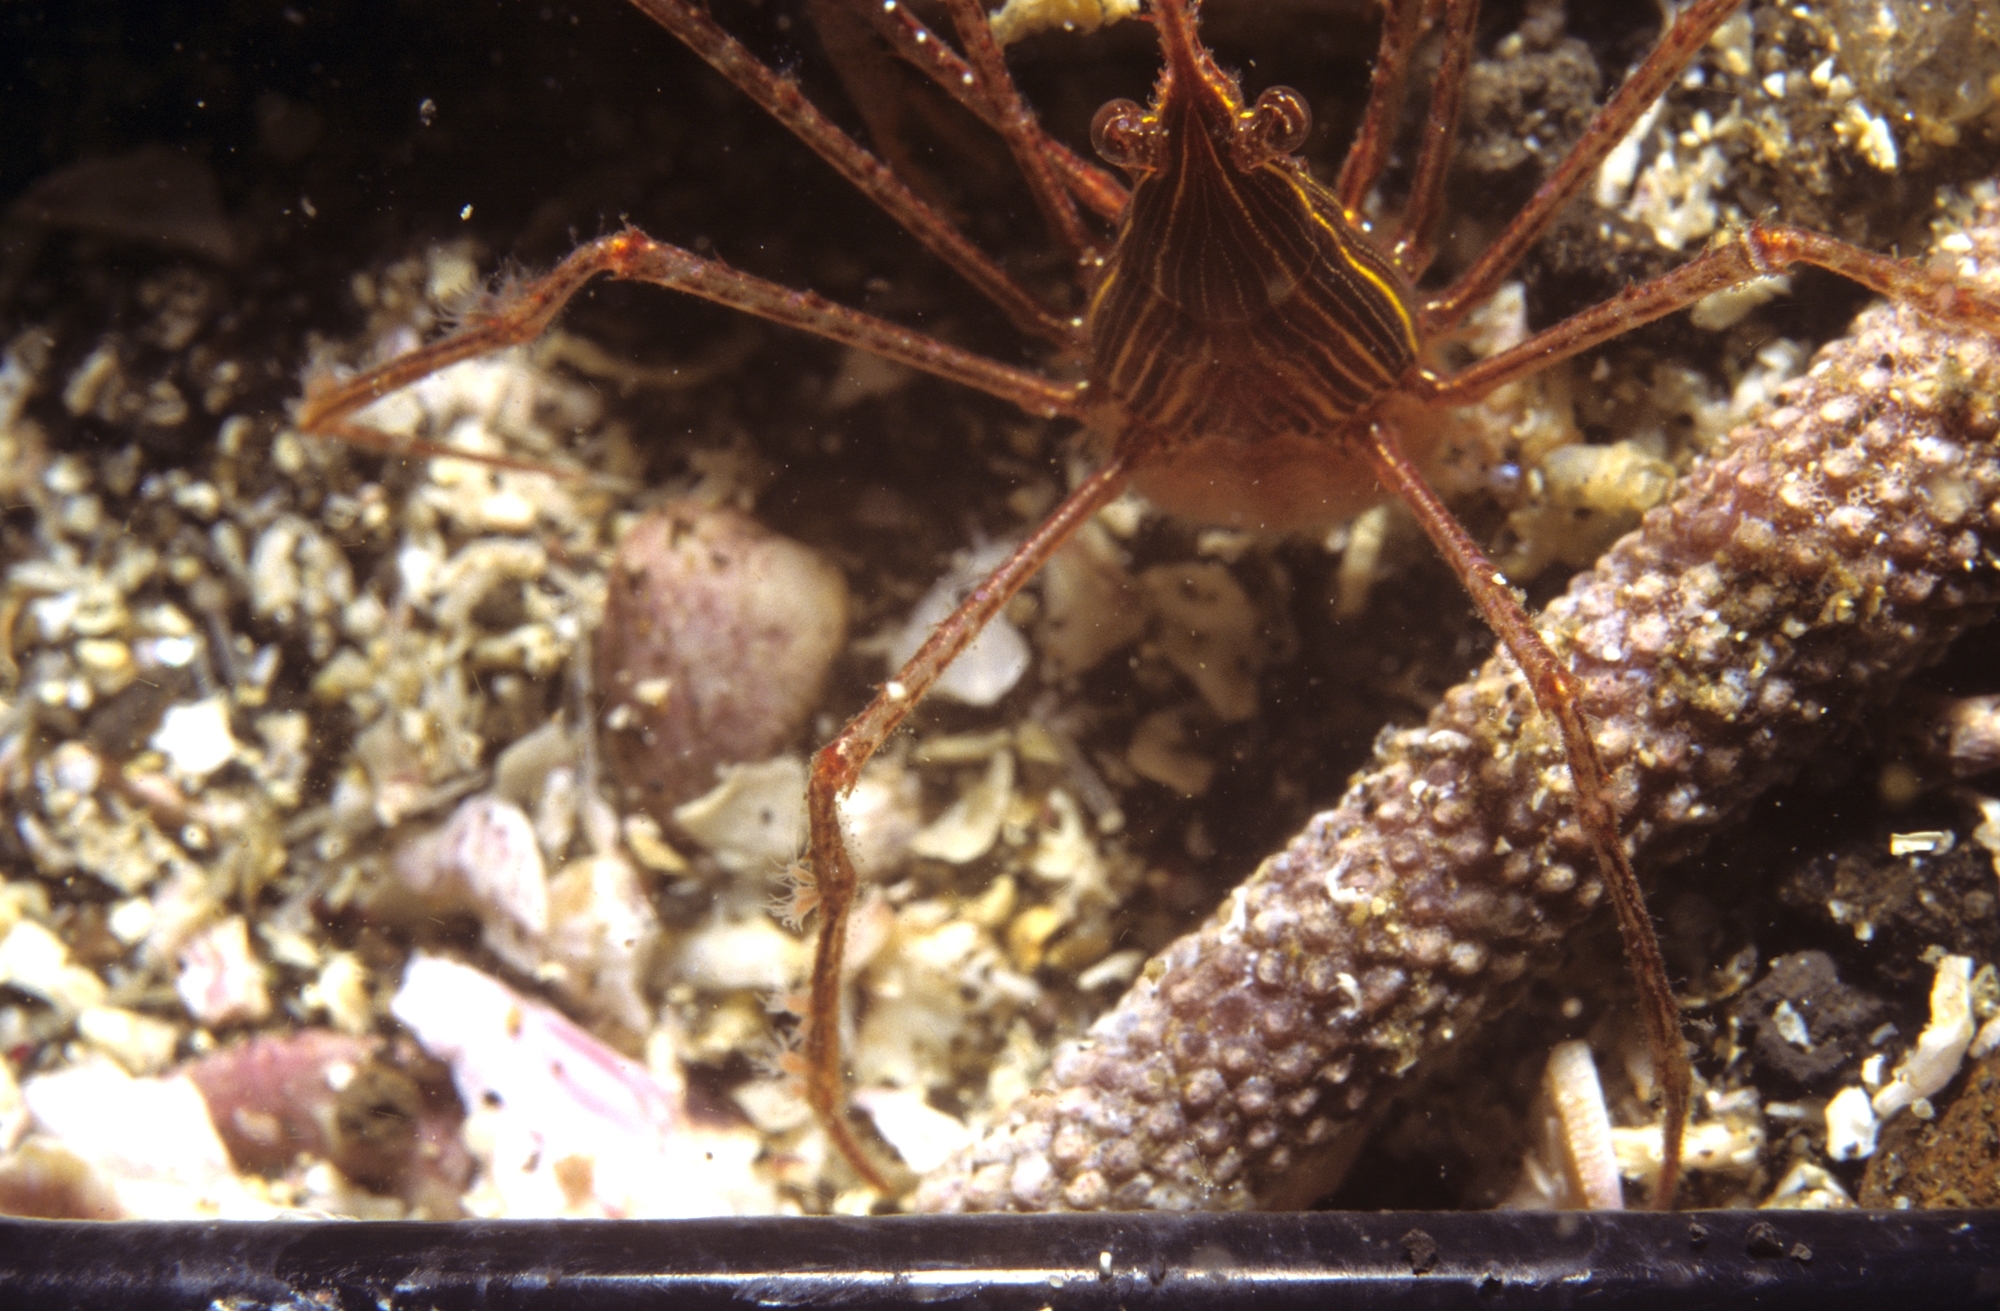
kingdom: Animalia
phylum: Arthropoda
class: Malacostraca
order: Decapoda
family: Inachoididae
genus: Stenorhynchus
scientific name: Stenorhynchus debilis
